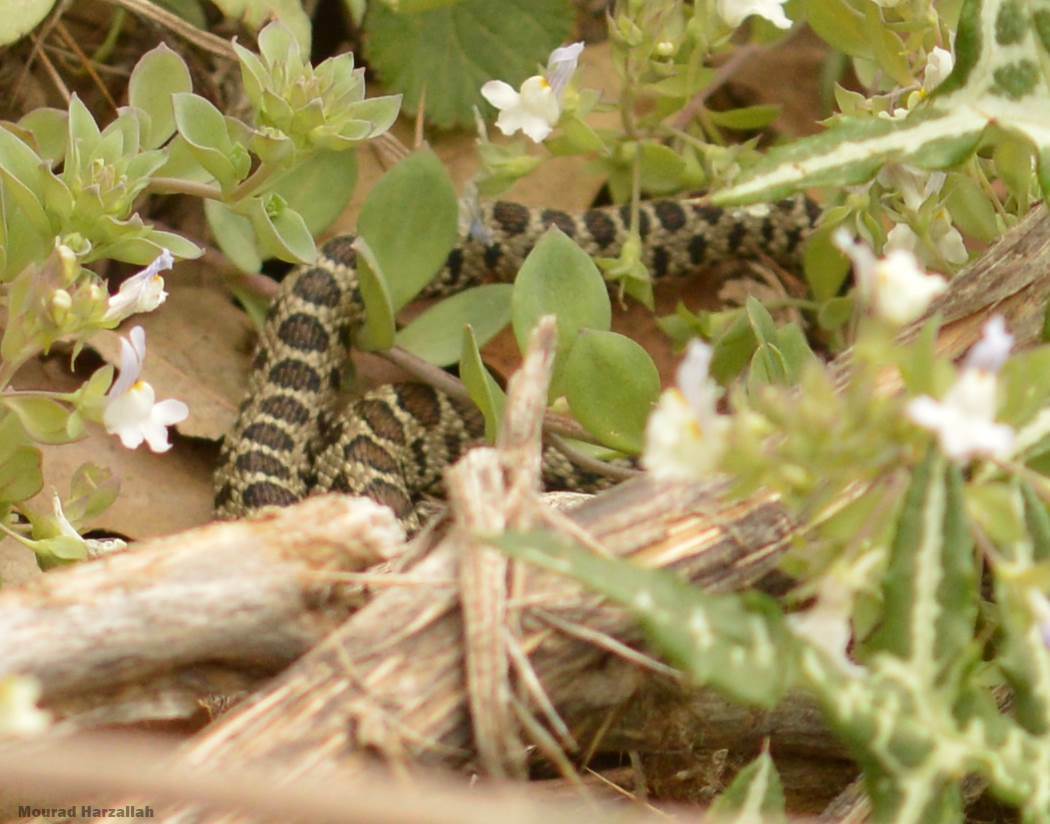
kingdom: Animalia
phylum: Chordata
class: Squamata
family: Colubridae
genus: Hemorrhois
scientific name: Hemorrhois hippocrepis
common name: Horseshoe whip snake
